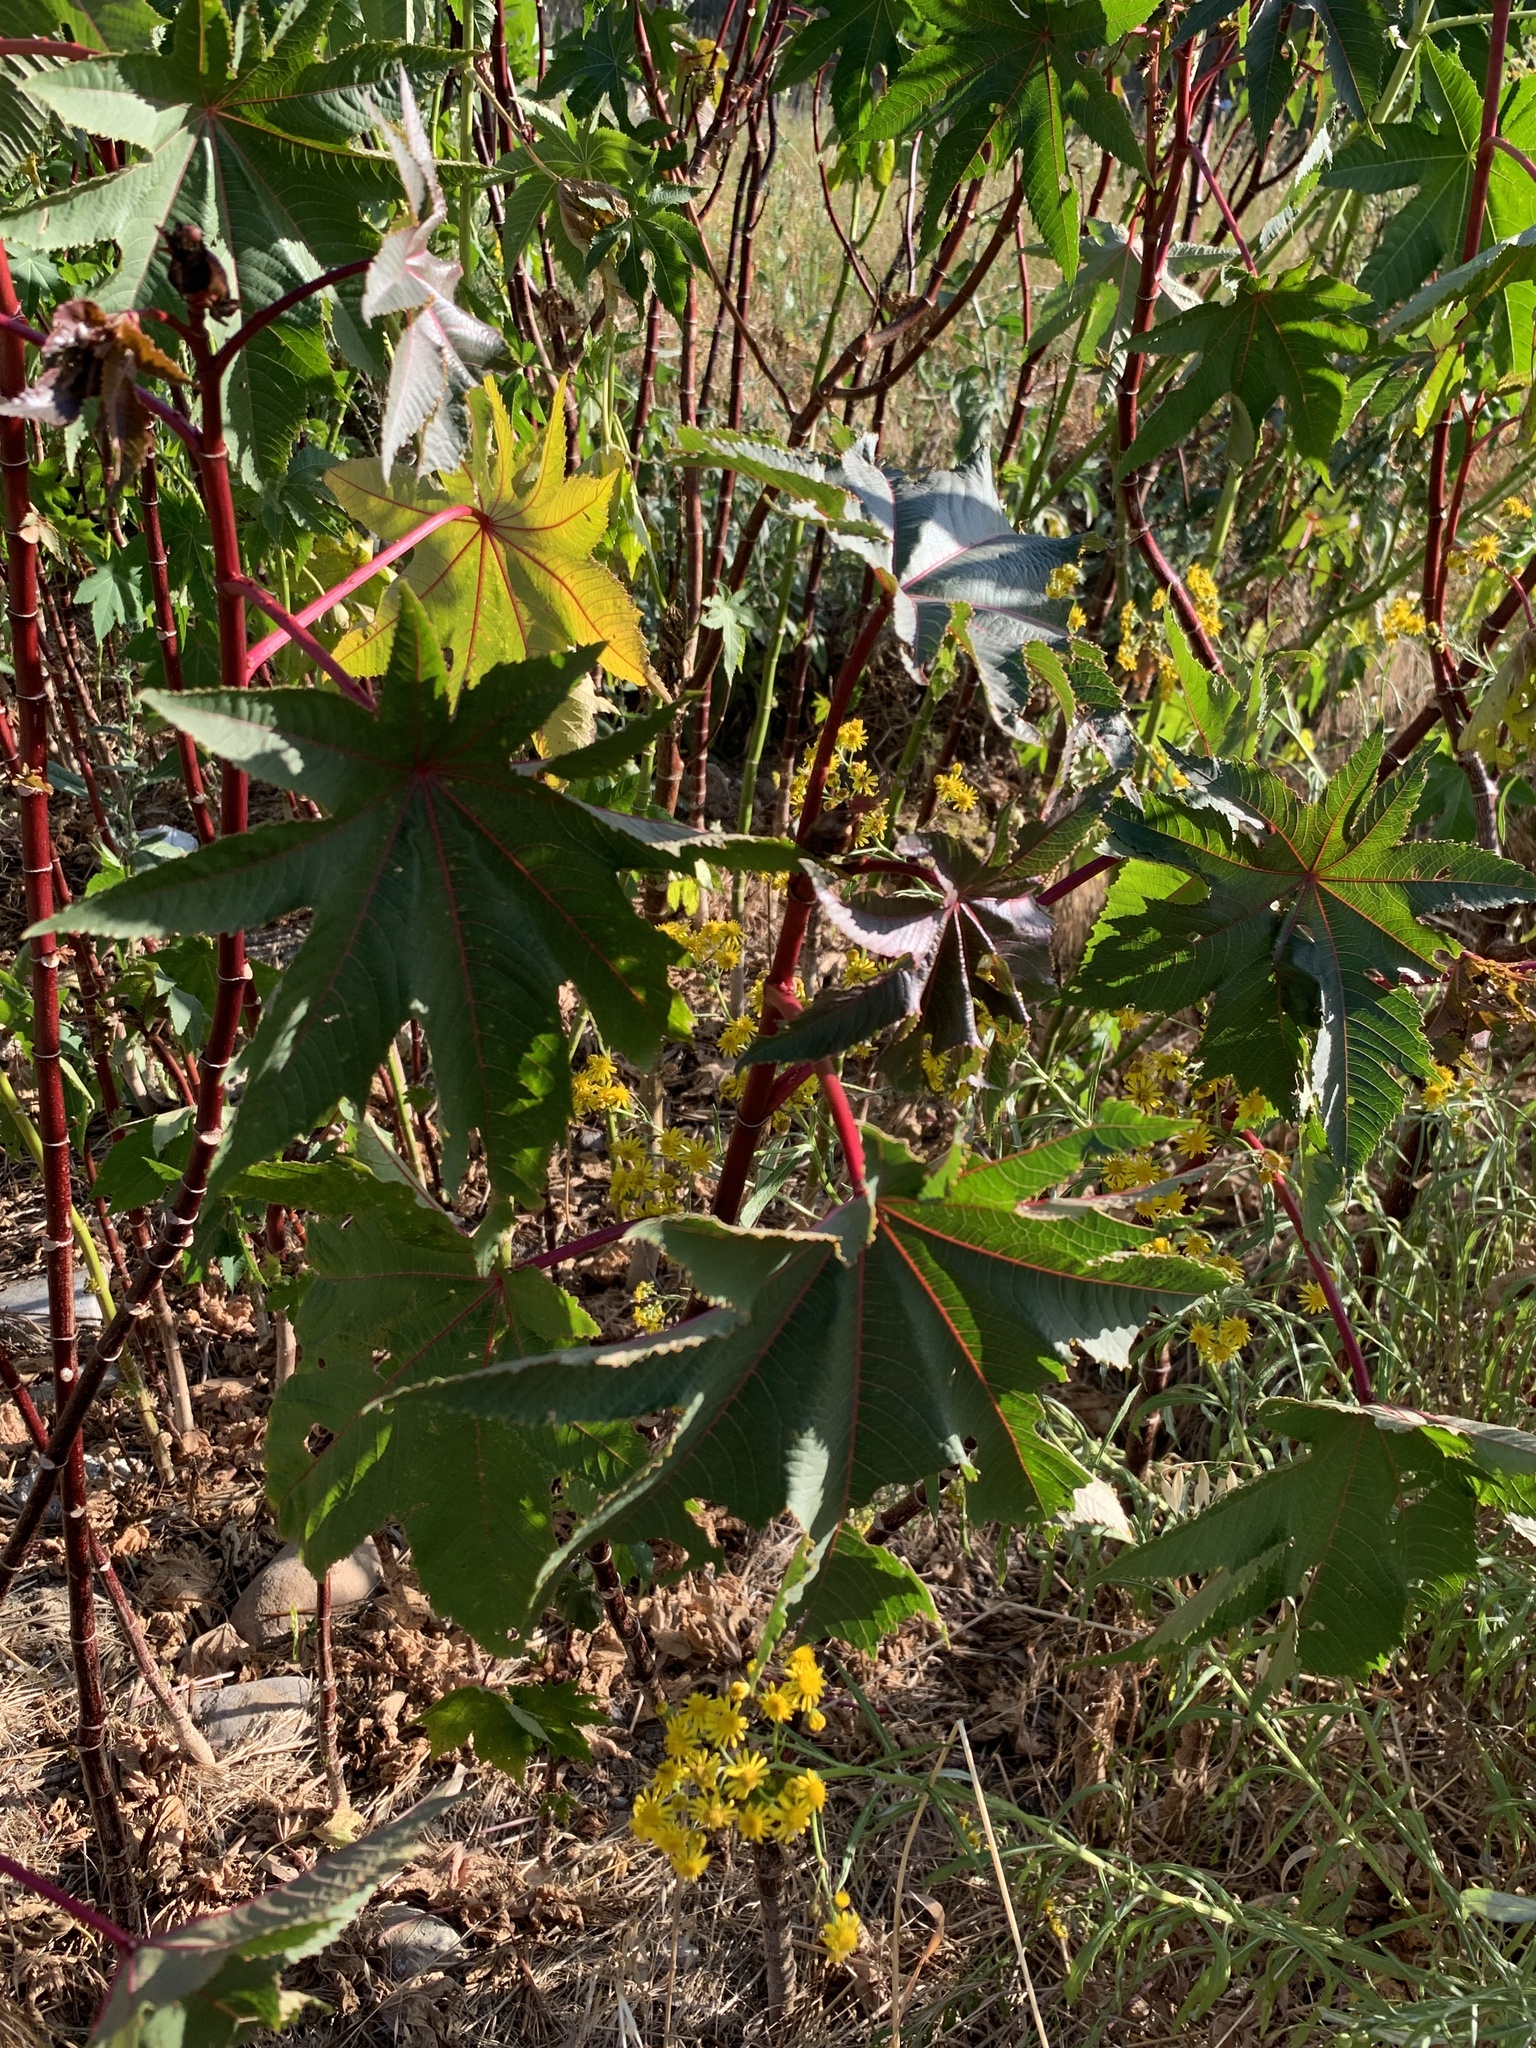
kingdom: Plantae
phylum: Tracheophyta
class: Magnoliopsida
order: Malpighiales
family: Euphorbiaceae
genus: Ricinus
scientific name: Ricinus communis
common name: Castor-oil-plant
